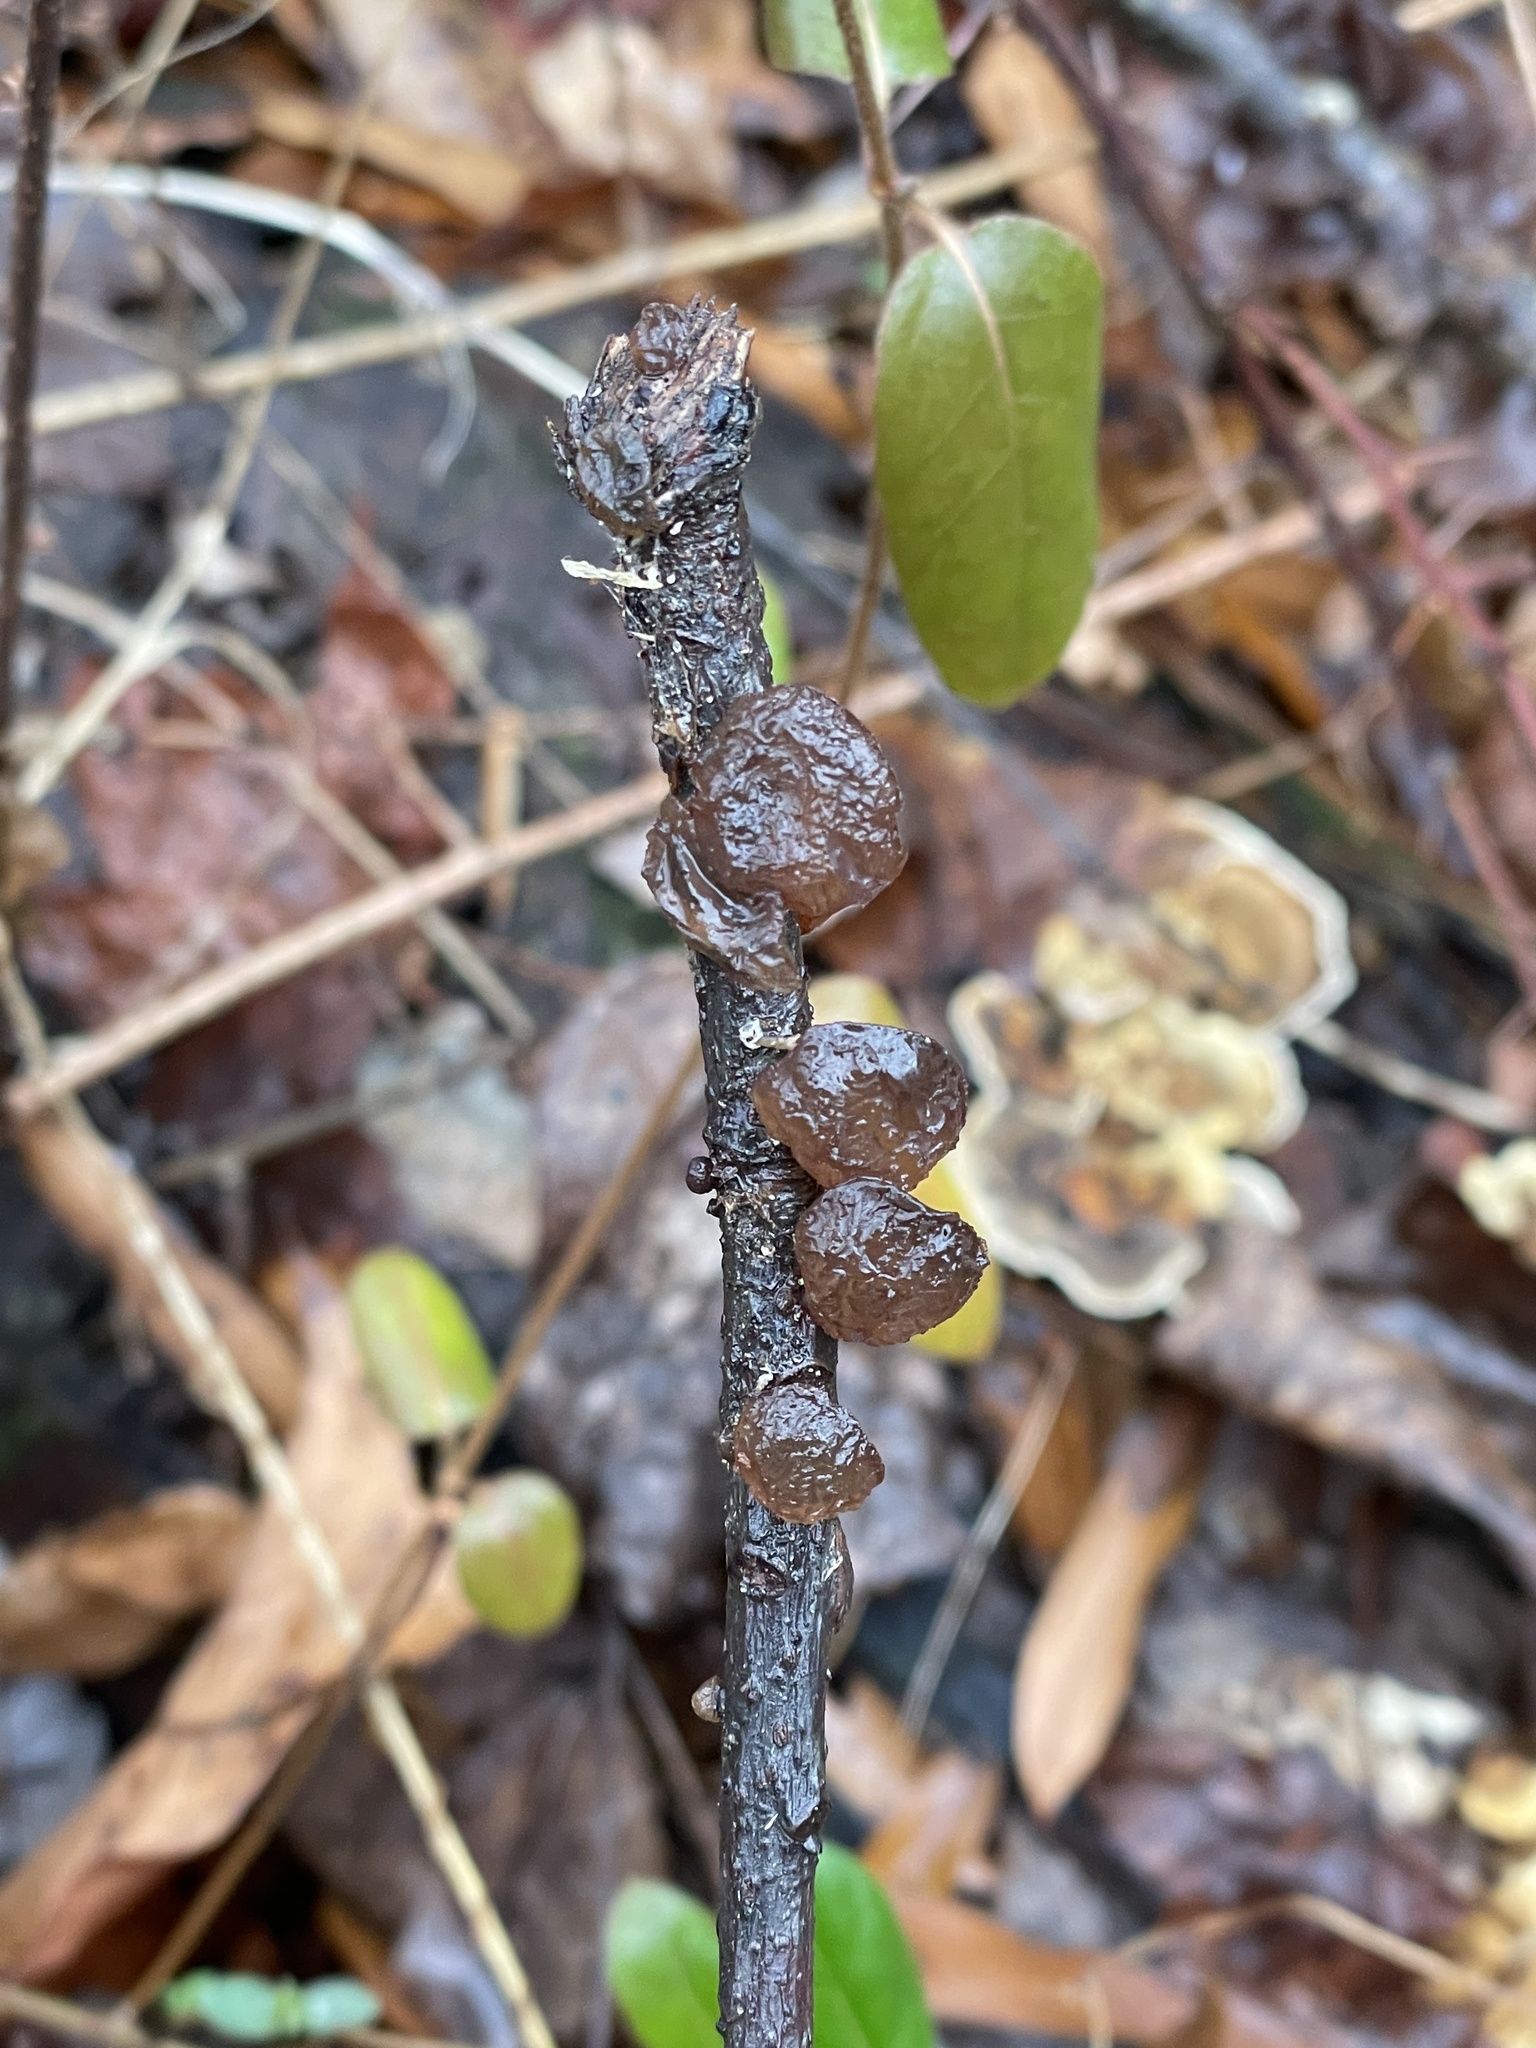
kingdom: Fungi
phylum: Basidiomycota
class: Agaricomycetes
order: Auriculariales
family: Auriculariaceae
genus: Exidia
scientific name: Exidia
